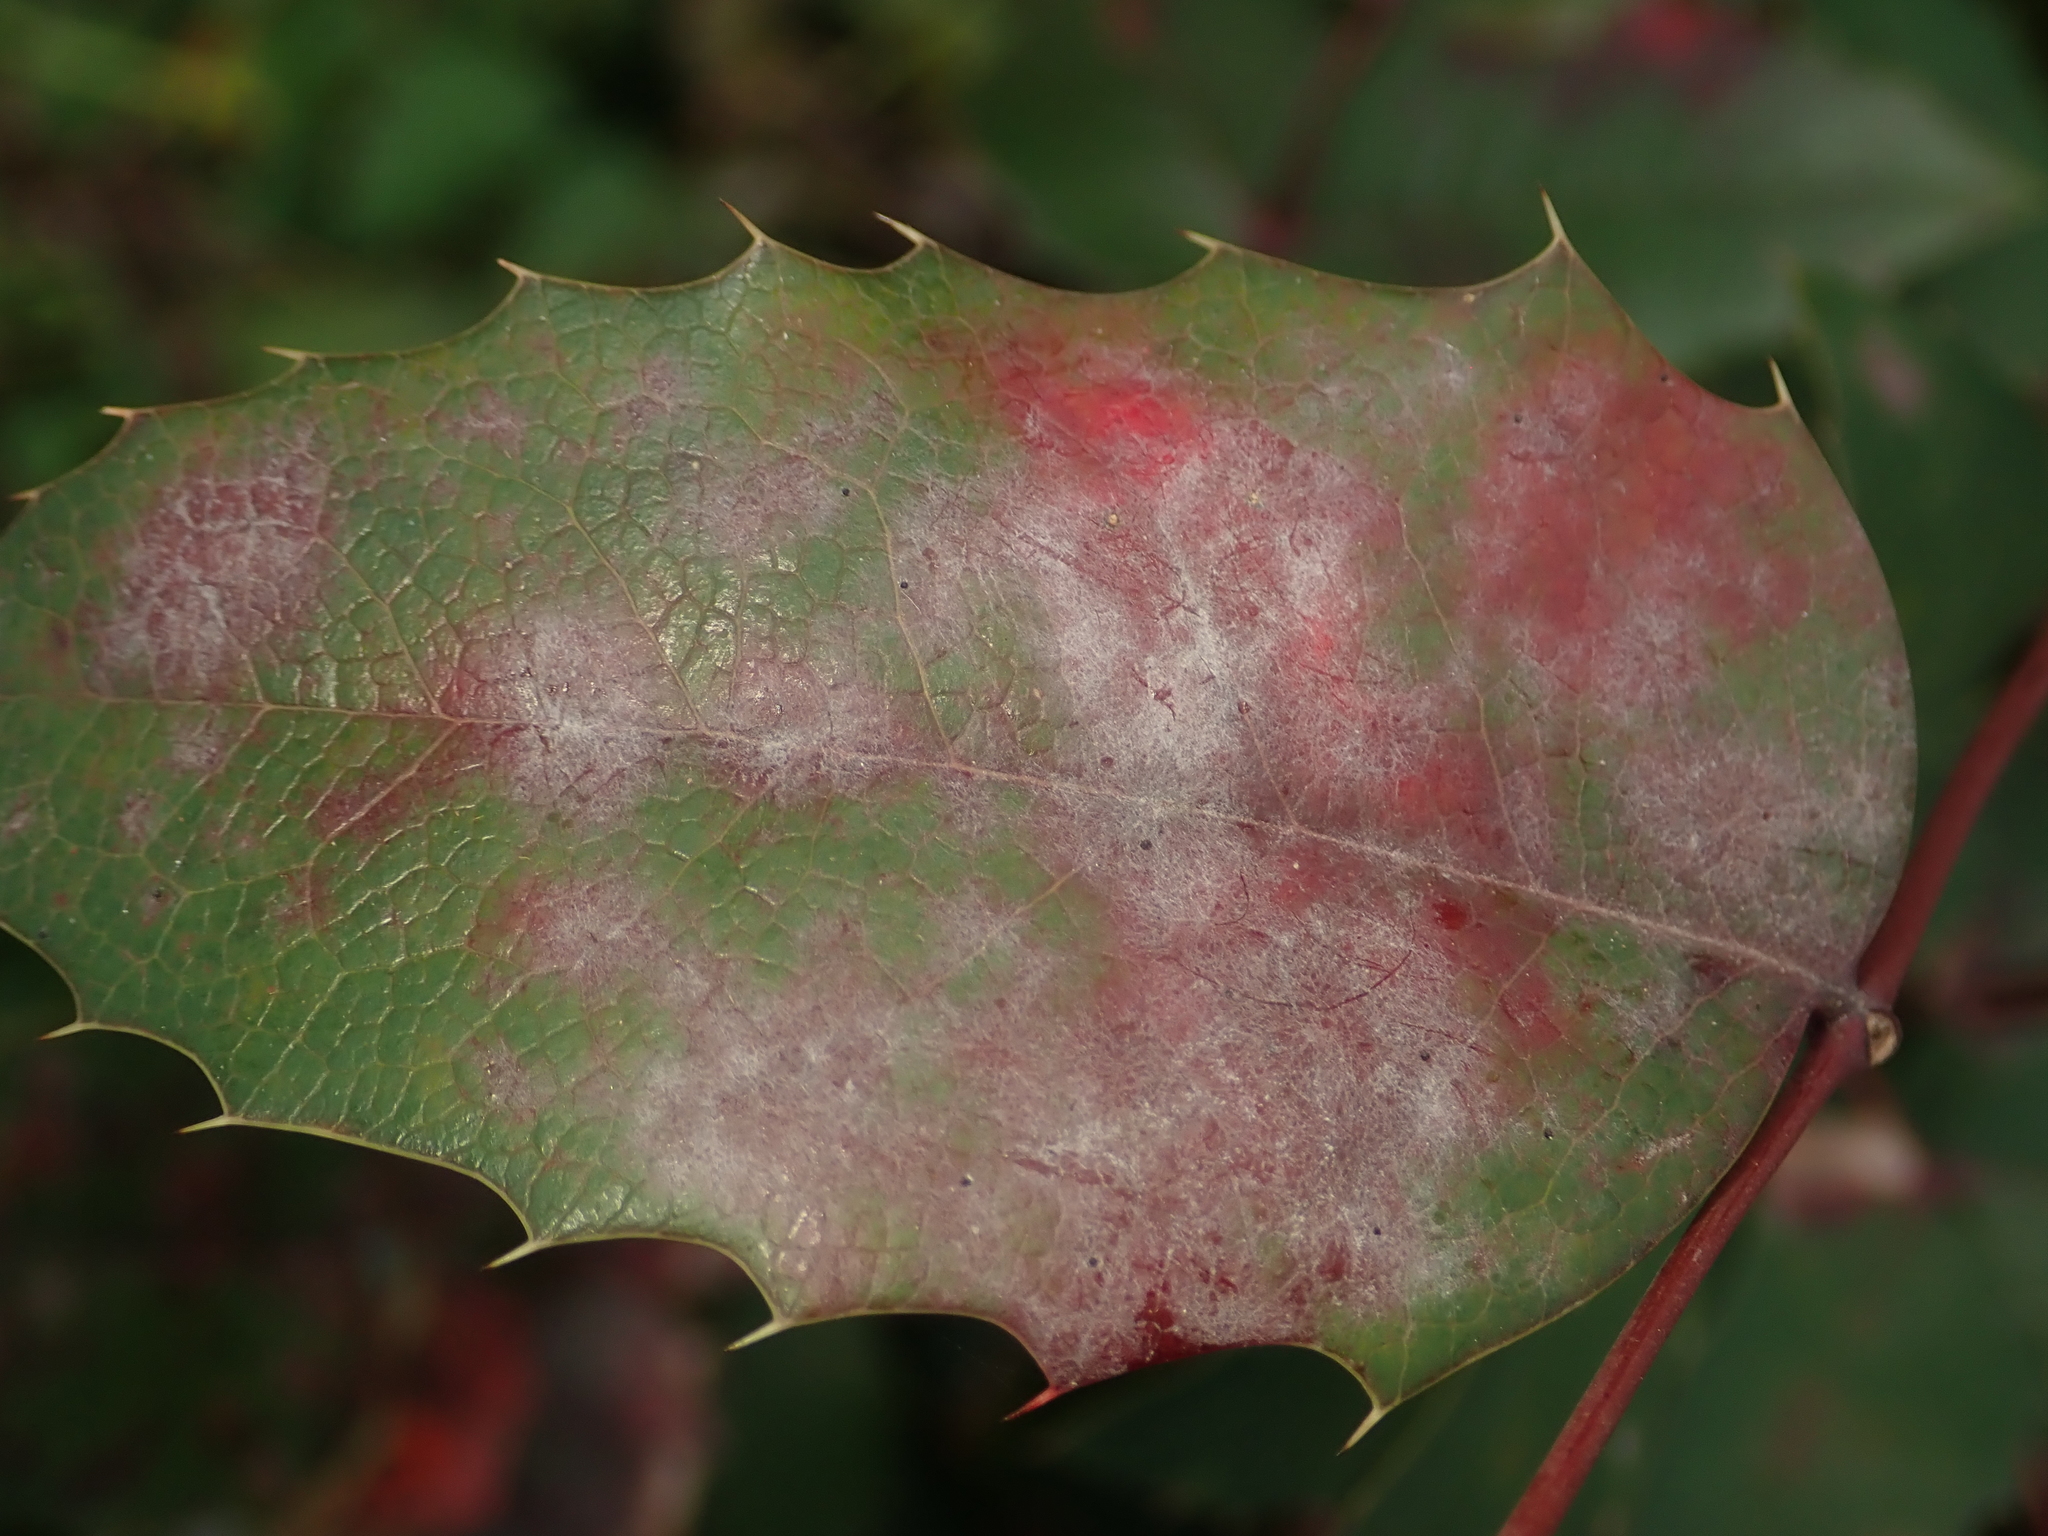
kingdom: Fungi
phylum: Ascomycota
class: Leotiomycetes
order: Helotiales
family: Erysiphaceae
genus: Erysiphe
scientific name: Erysiphe berberidis
